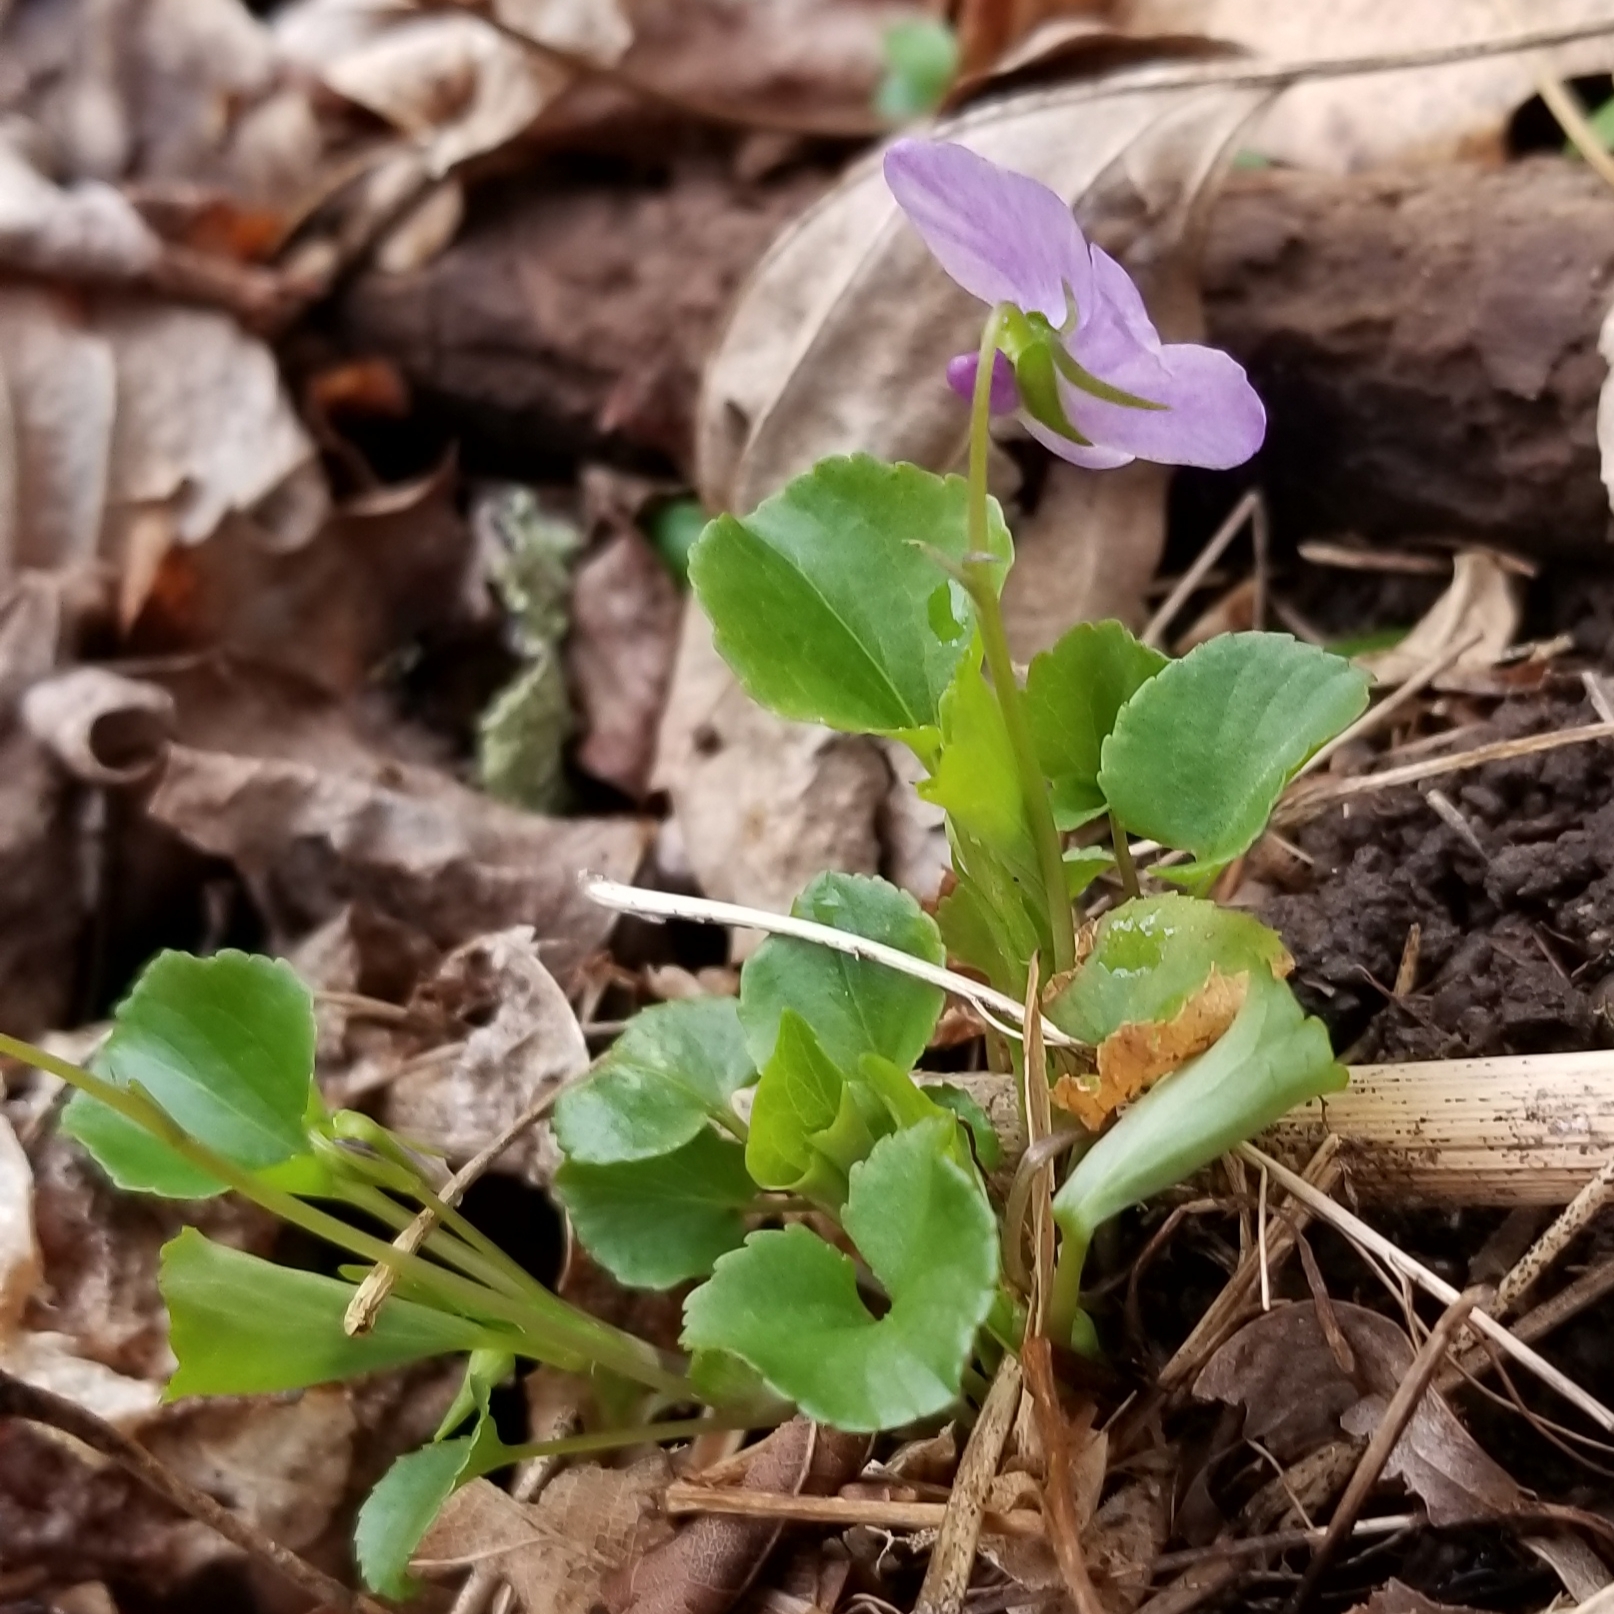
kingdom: Plantae
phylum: Tracheophyta
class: Magnoliopsida
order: Malpighiales
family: Violaceae
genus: Viola
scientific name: Viola labradorica
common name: Labrador violet
